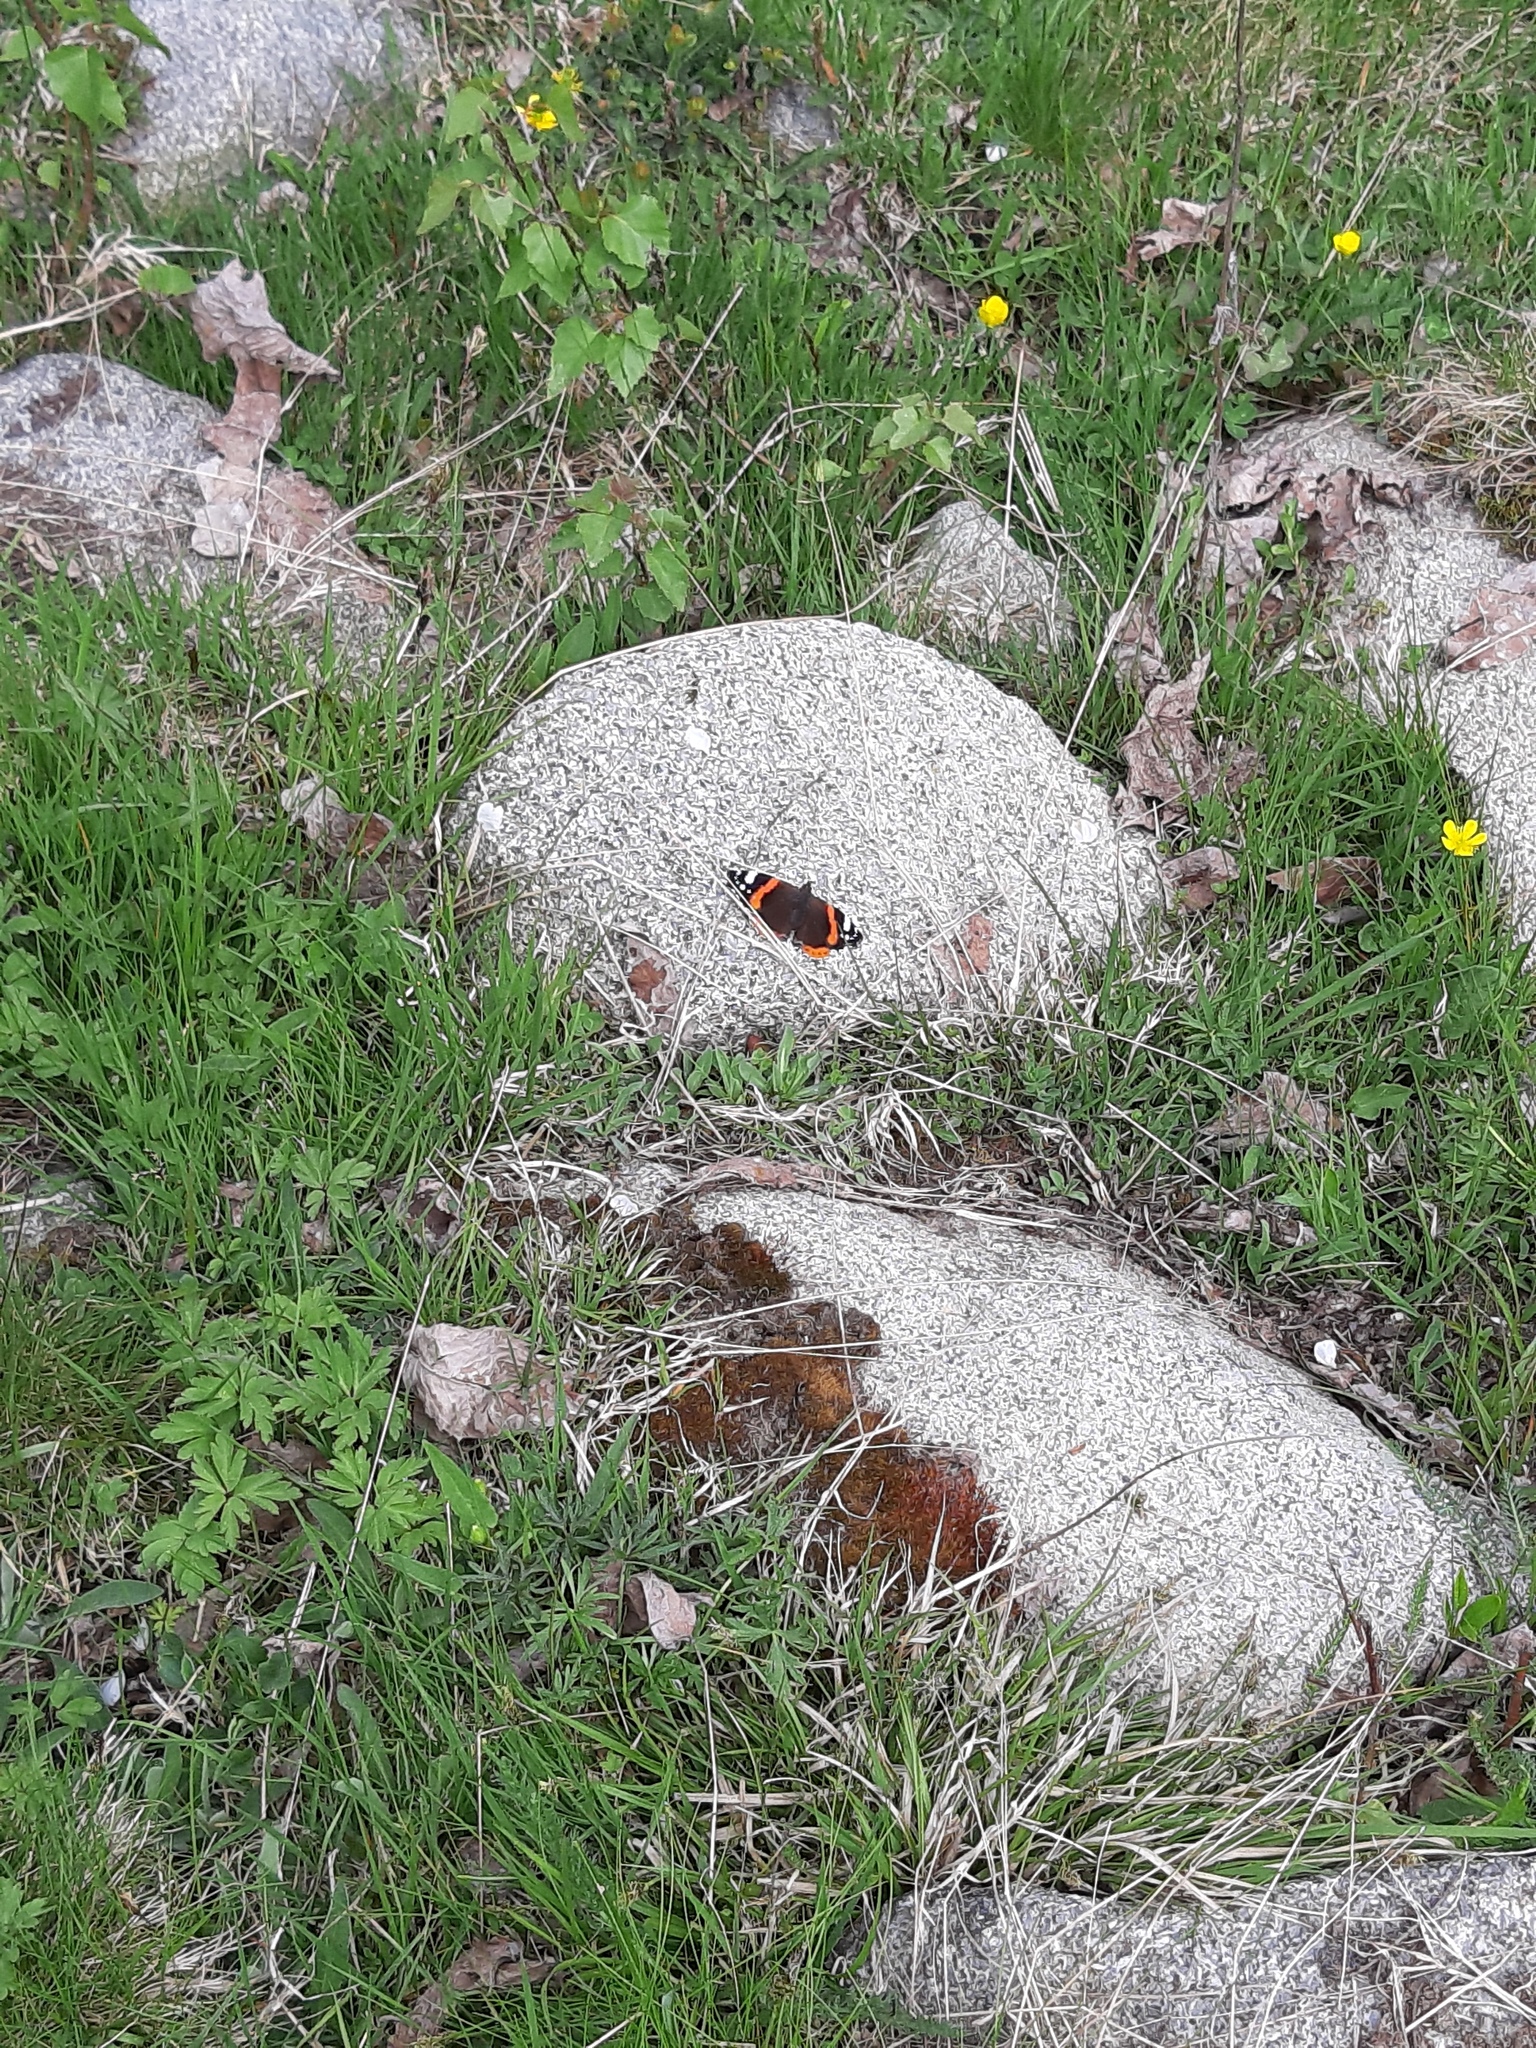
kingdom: Animalia
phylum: Arthropoda
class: Insecta
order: Lepidoptera
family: Nymphalidae
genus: Vanessa
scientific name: Vanessa atalanta
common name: Red admiral
